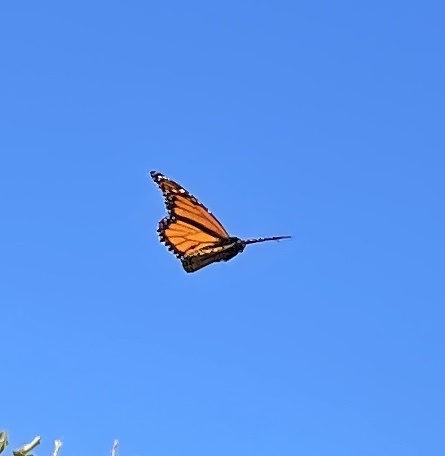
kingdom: Animalia
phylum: Arthropoda
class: Insecta
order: Lepidoptera
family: Nymphalidae
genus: Danaus
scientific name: Danaus plexippus
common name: Monarch
